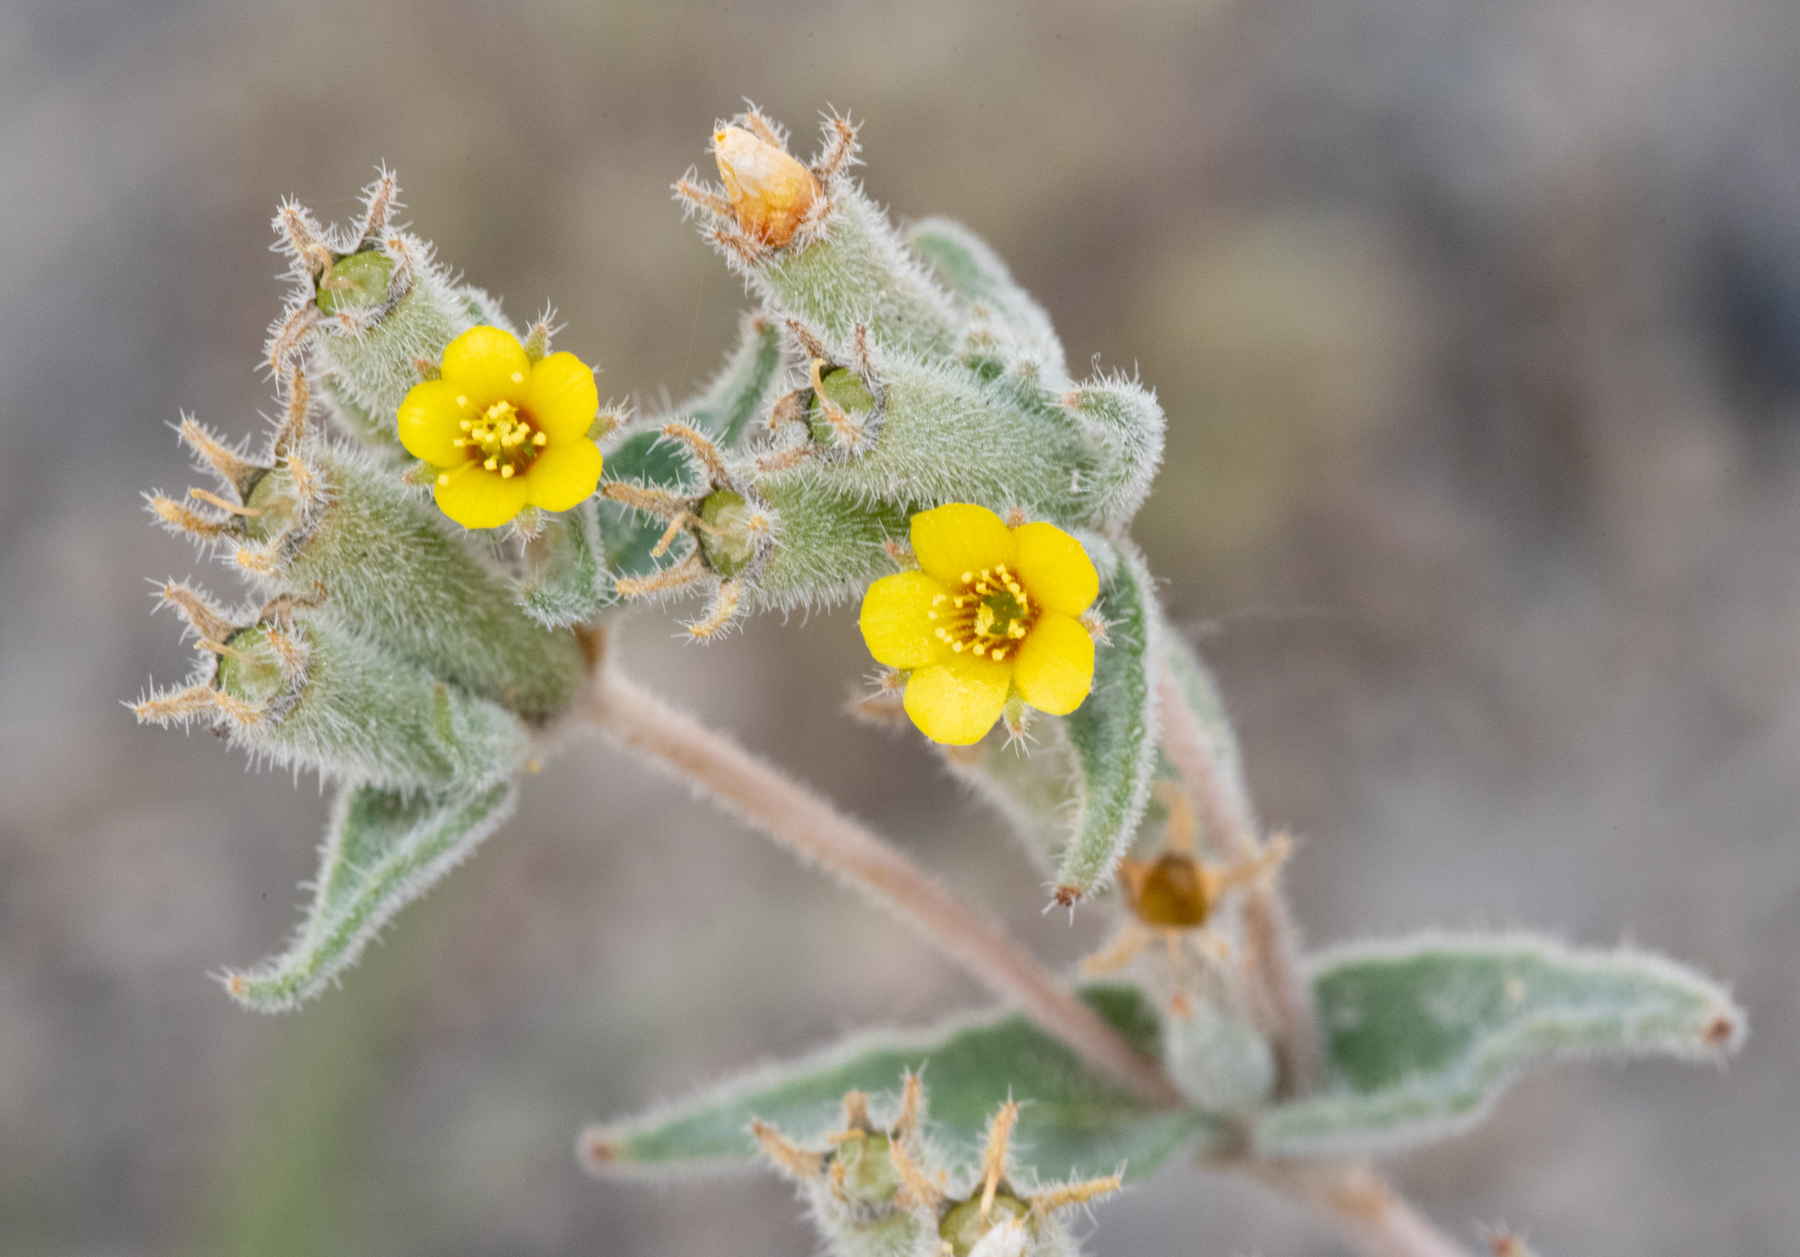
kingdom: Plantae
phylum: Tracheophyta
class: Magnoliopsida
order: Cornales
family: Loasaceae
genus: Mentzelia
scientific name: Mentzelia albicaulis
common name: White-stem blazingstar
